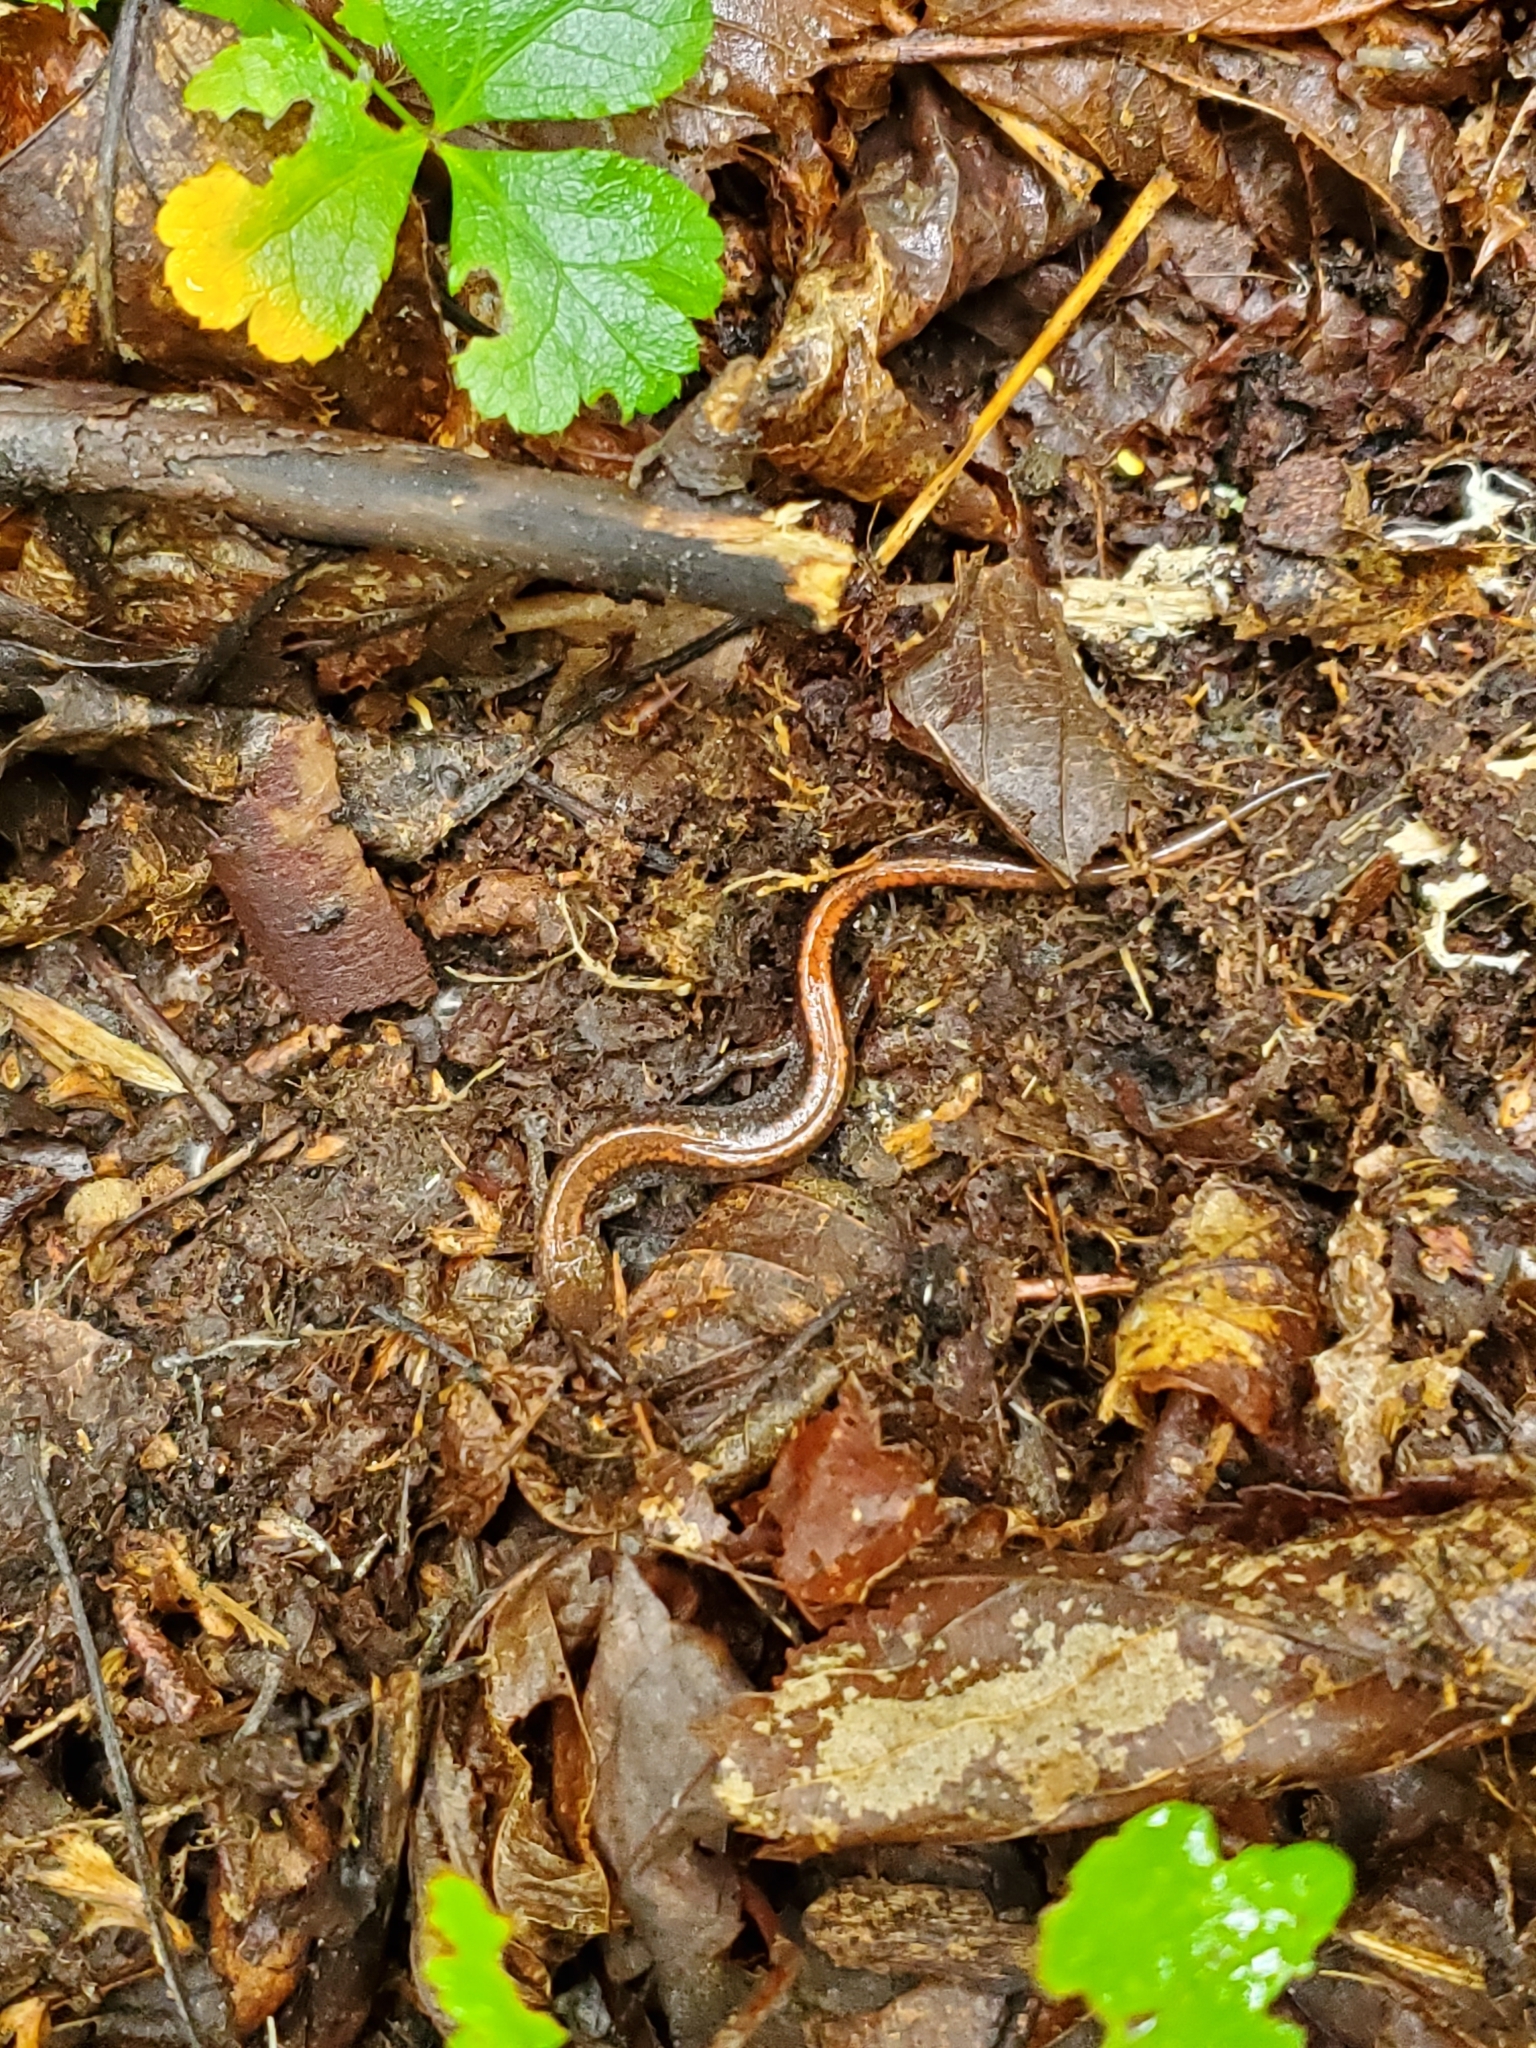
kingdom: Animalia
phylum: Chordata
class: Amphibia
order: Caudata
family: Plethodontidae
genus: Plethodon
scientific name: Plethodon cinereus
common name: Redback salamander
